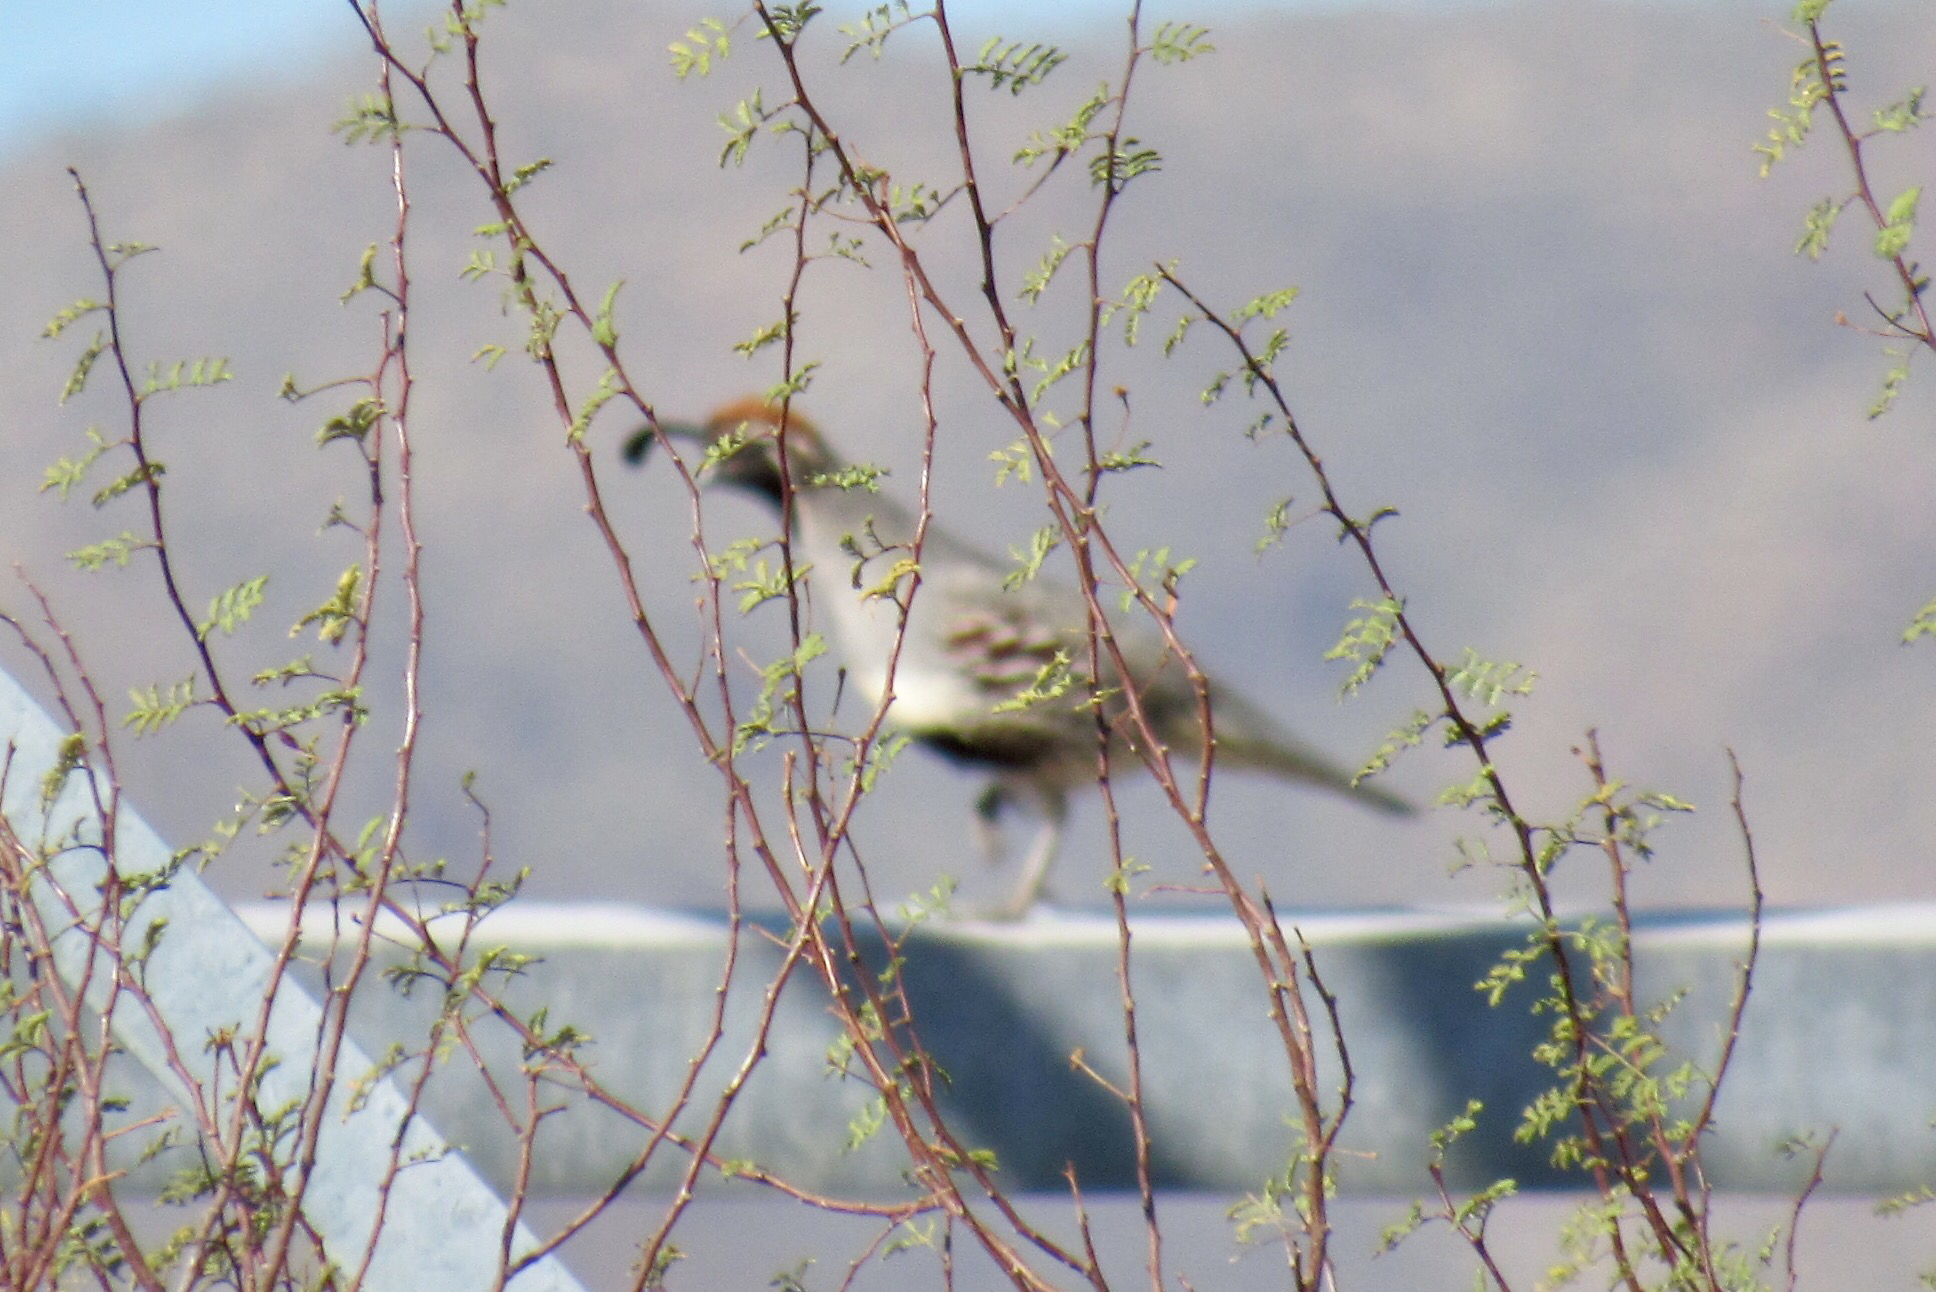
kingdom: Animalia
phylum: Chordata
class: Aves
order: Galliformes
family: Odontophoridae
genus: Callipepla
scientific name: Callipepla gambelii
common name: Gambel's quail
